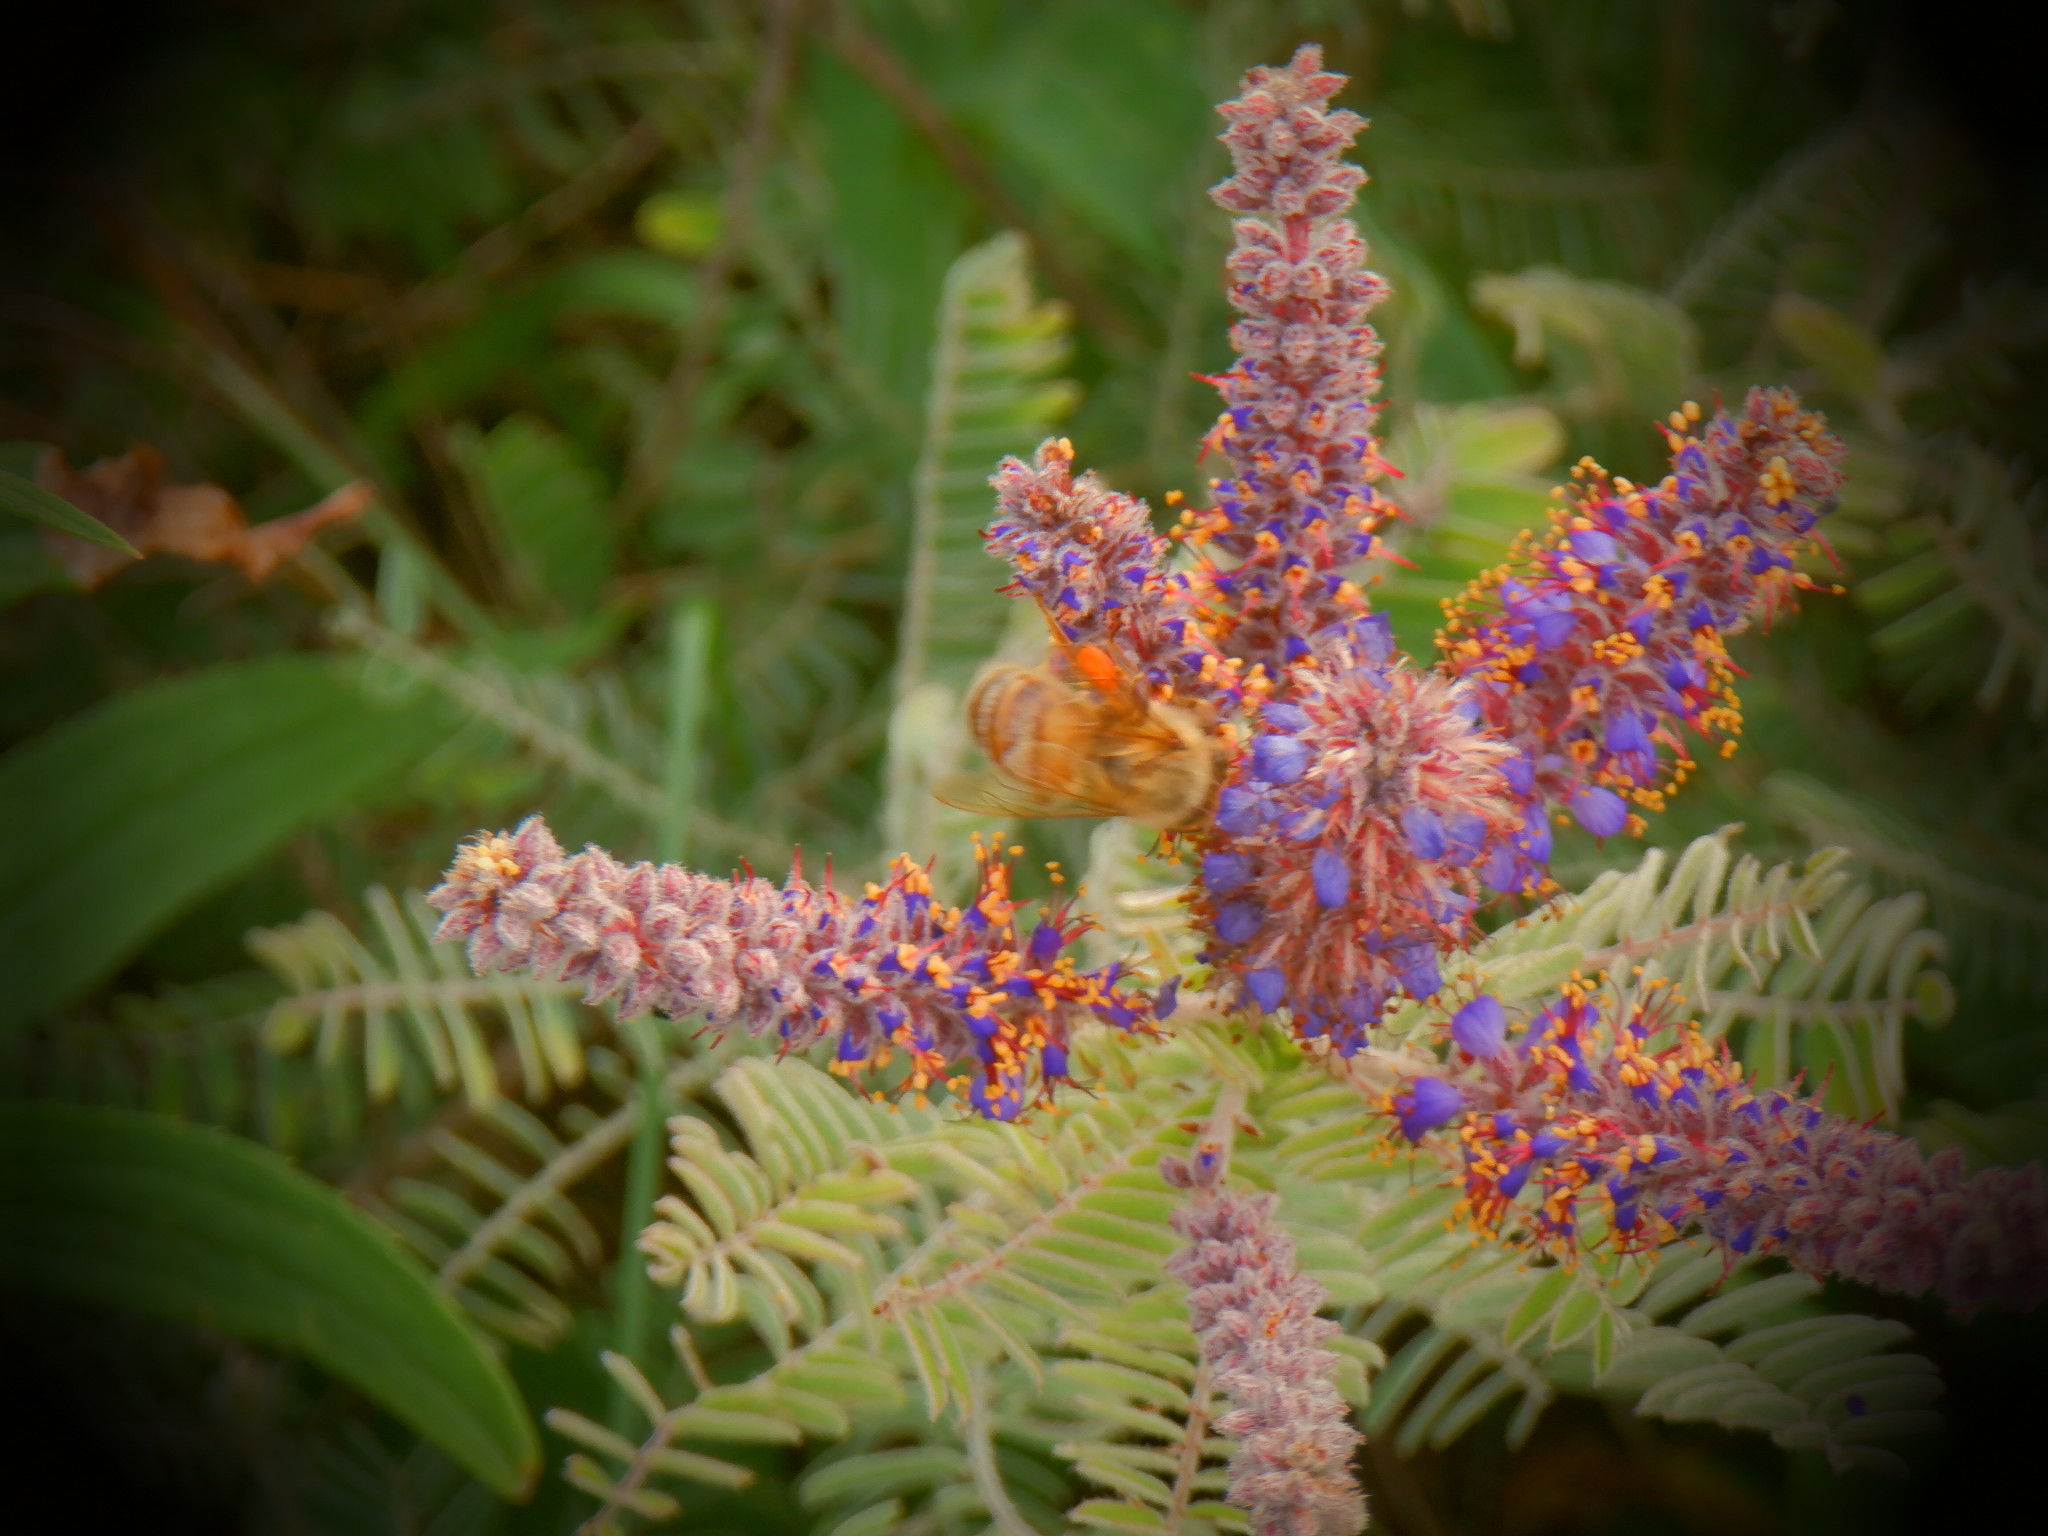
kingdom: Animalia
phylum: Arthropoda
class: Insecta
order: Hymenoptera
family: Apidae
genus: Apis
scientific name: Apis mellifera
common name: Honey bee
